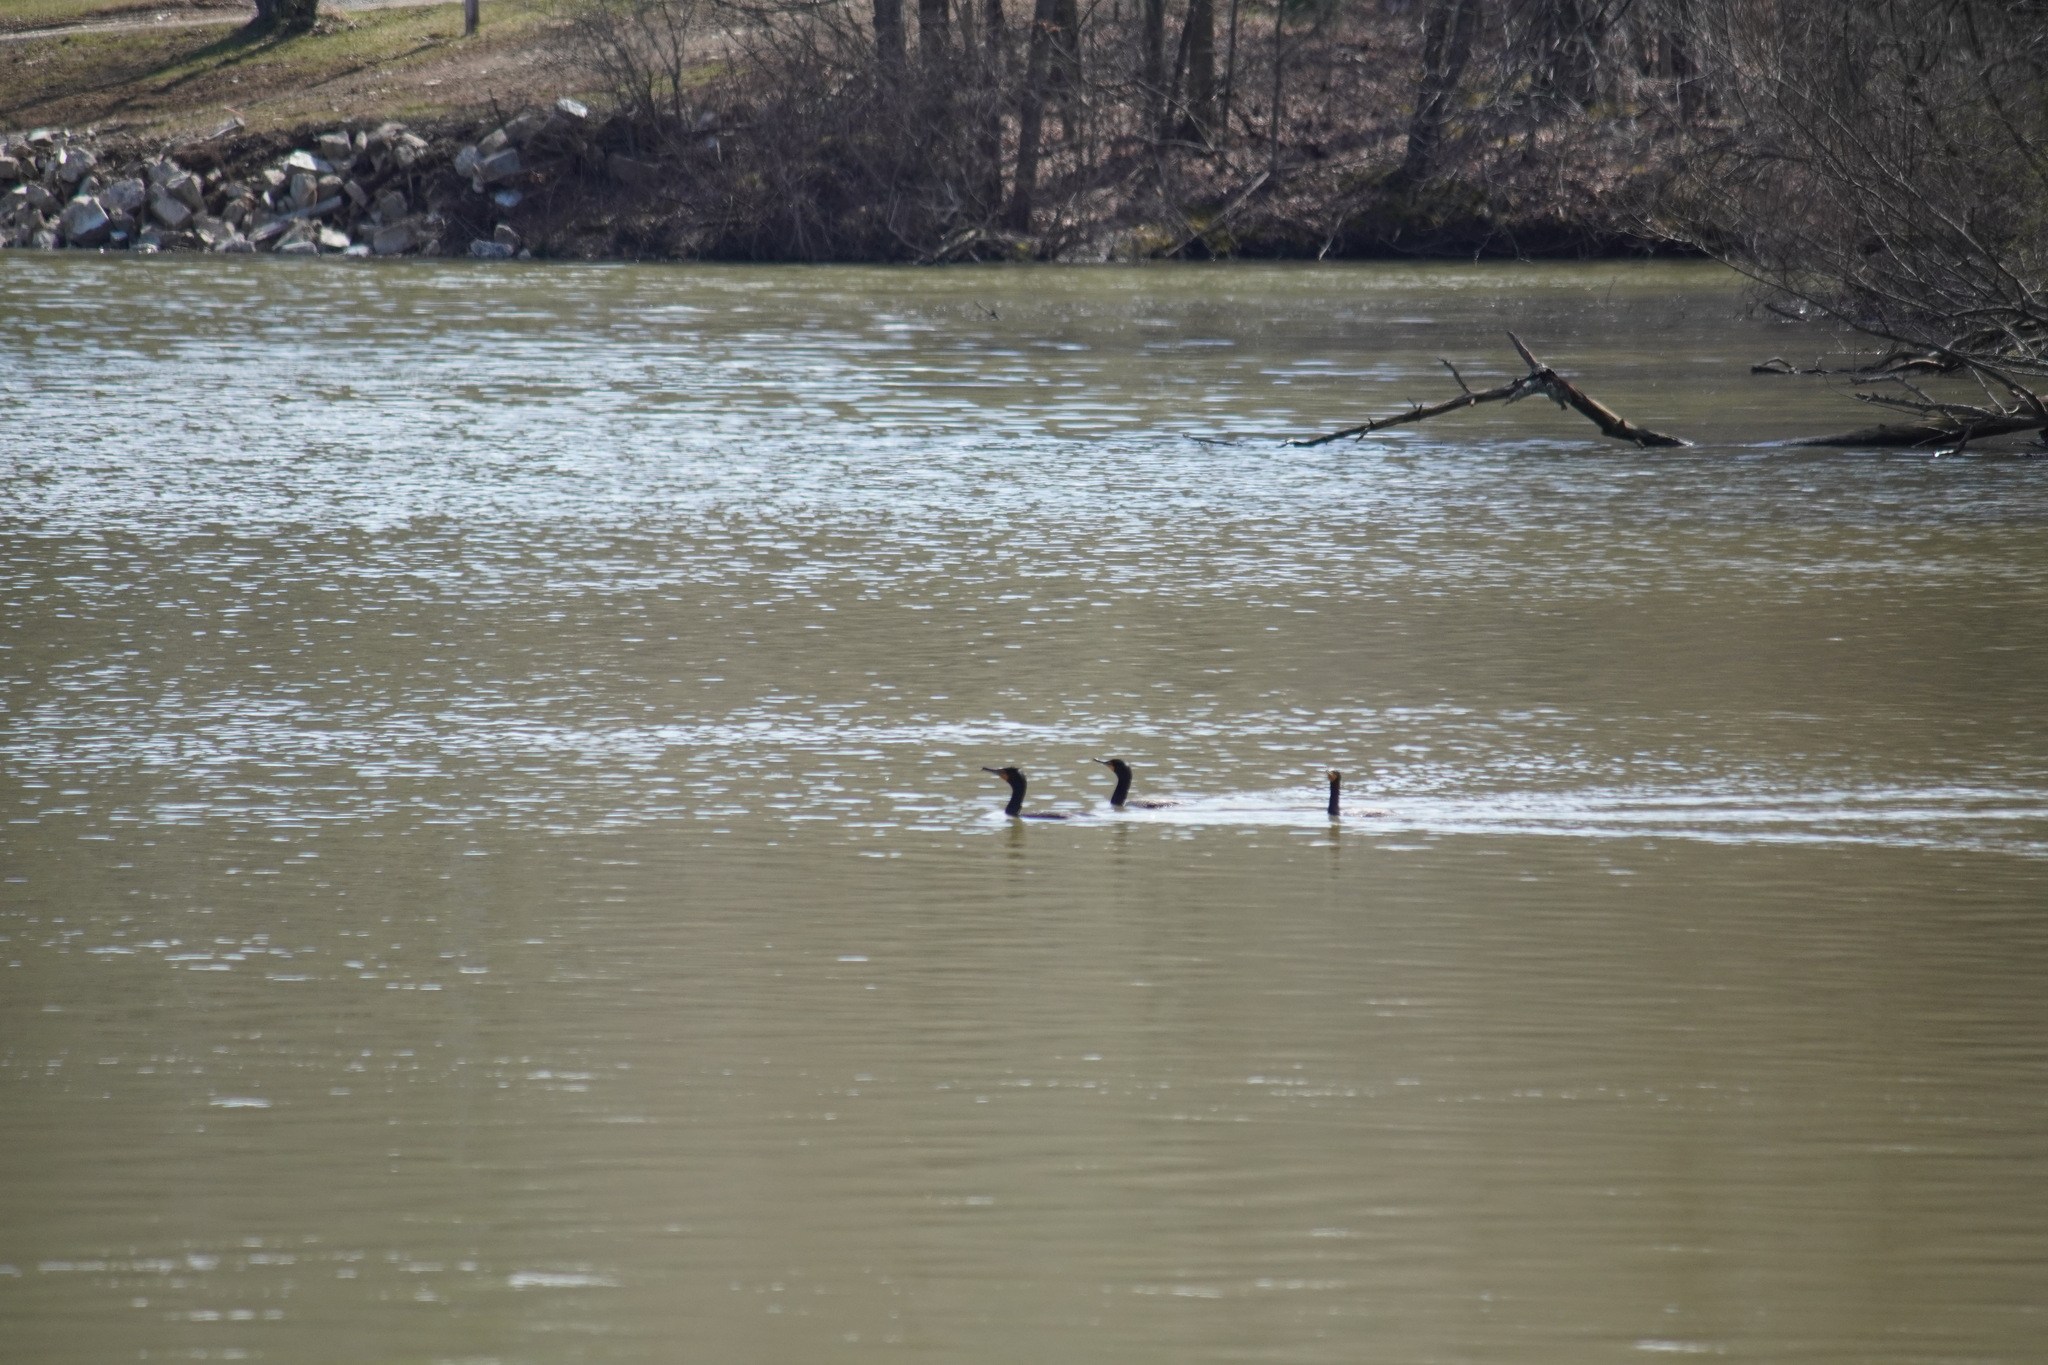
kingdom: Animalia
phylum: Chordata
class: Aves
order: Suliformes
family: Phalacrocoracidae
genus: Phalacrocorax
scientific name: Phalacrocorax auritus
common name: Double-crested cormorant
